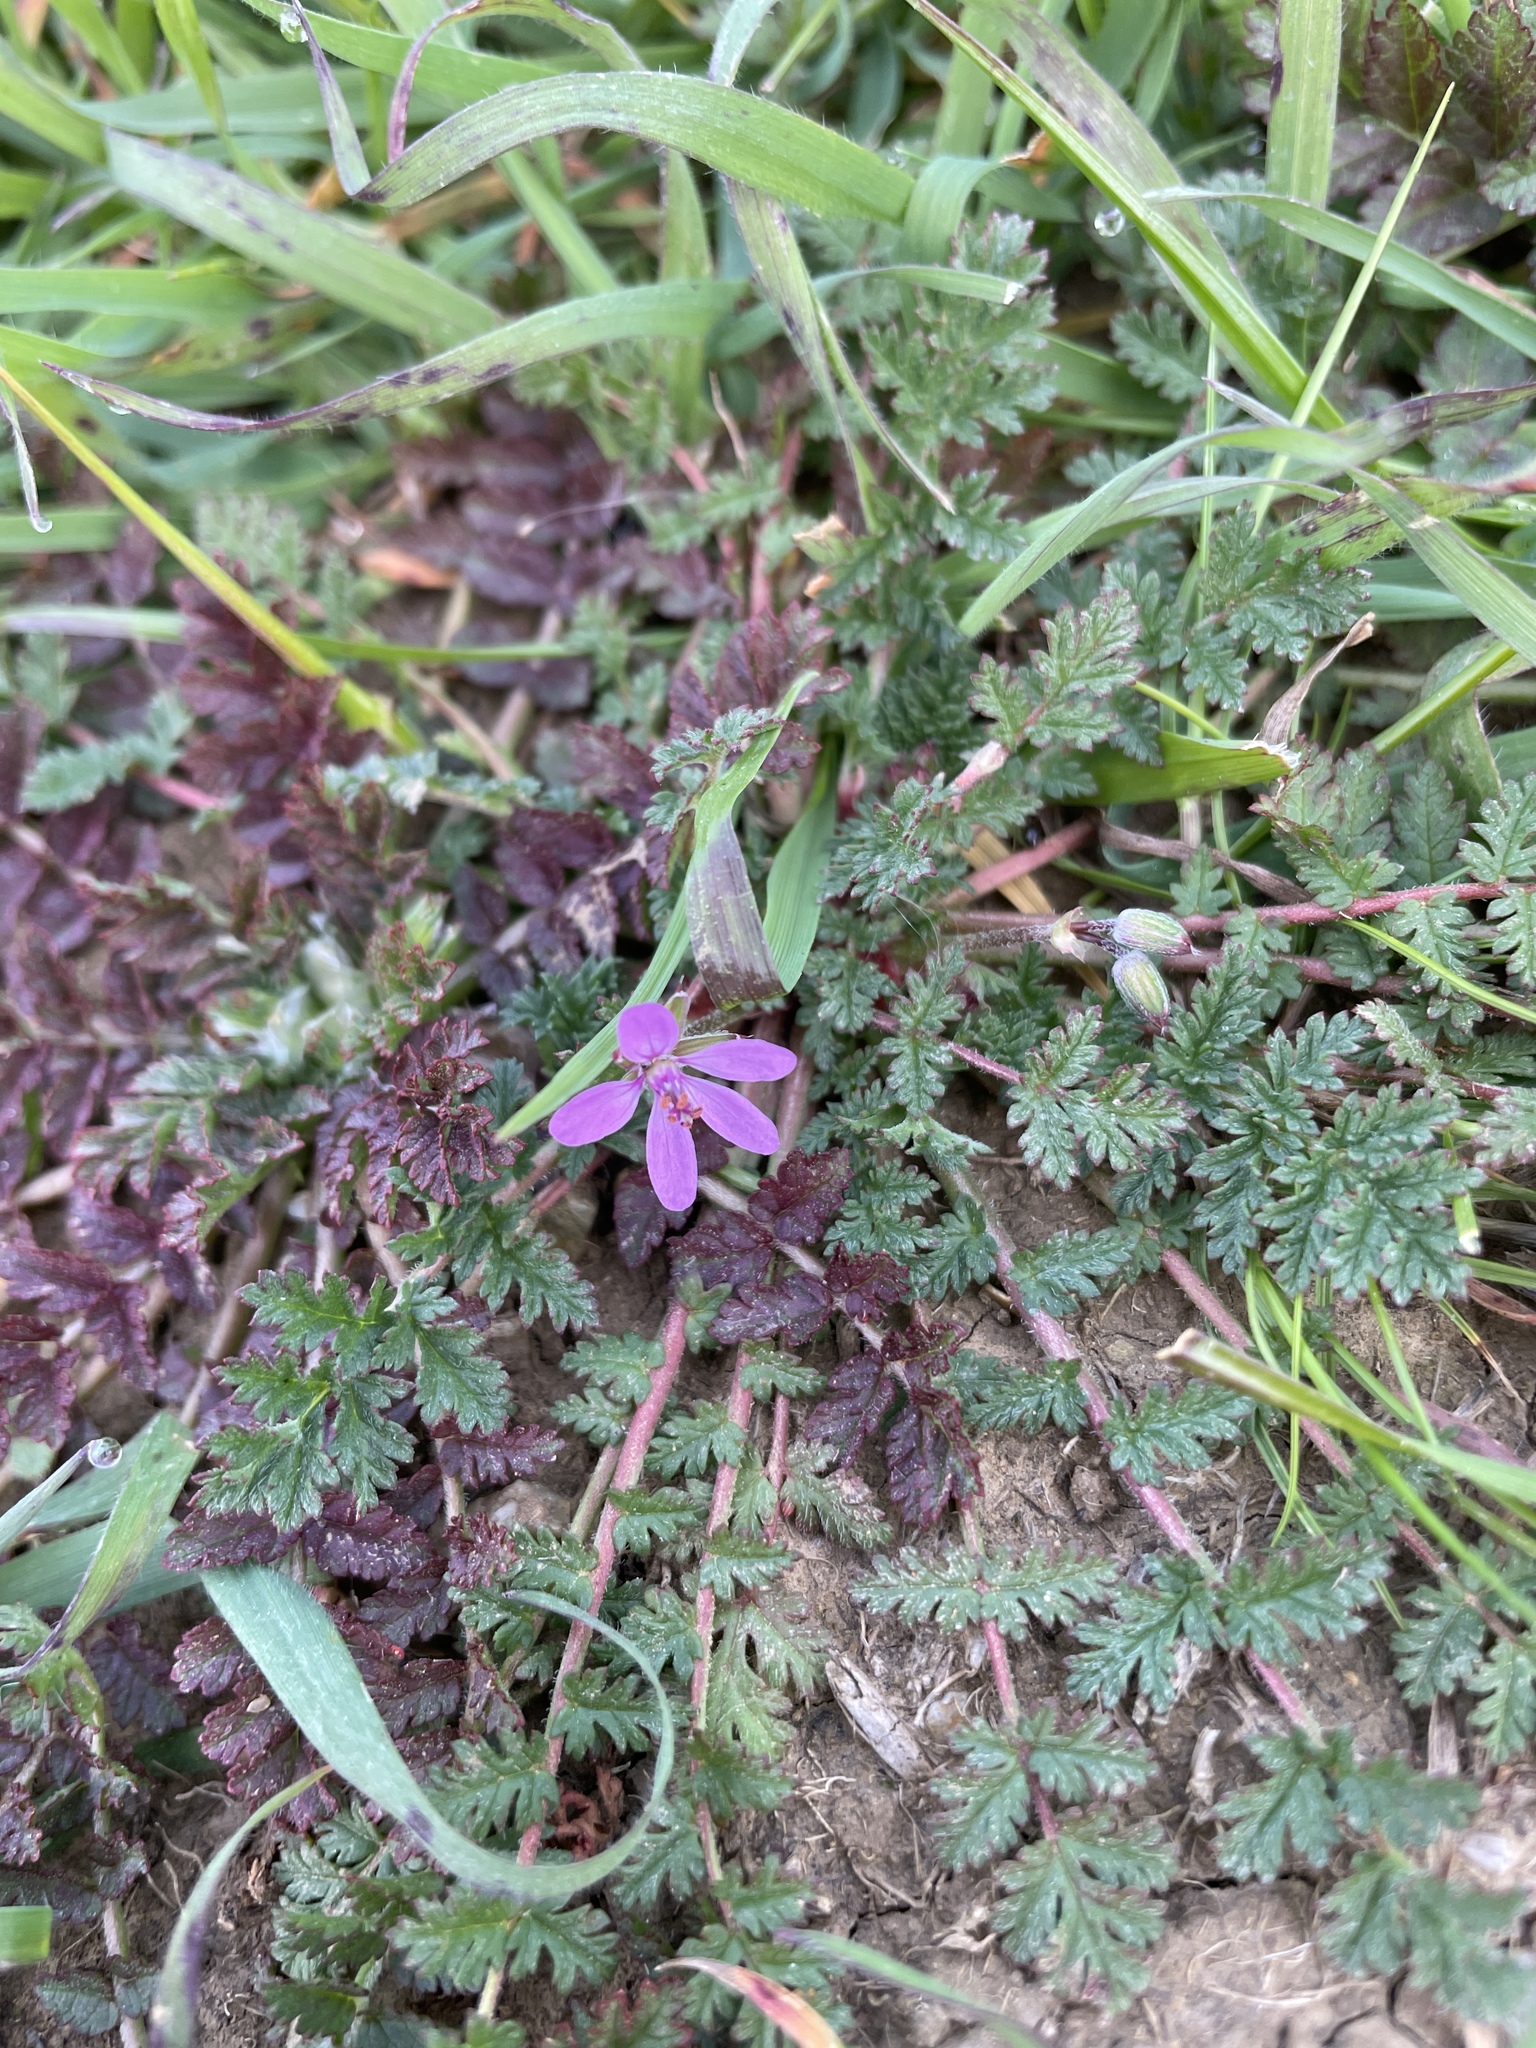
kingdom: Plantae
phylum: Tracheophyta
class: Magnoliopsida
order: Geraniales
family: Geraniaceae
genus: Erodium
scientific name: Erodium cicutarium
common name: Common stork's-bill
